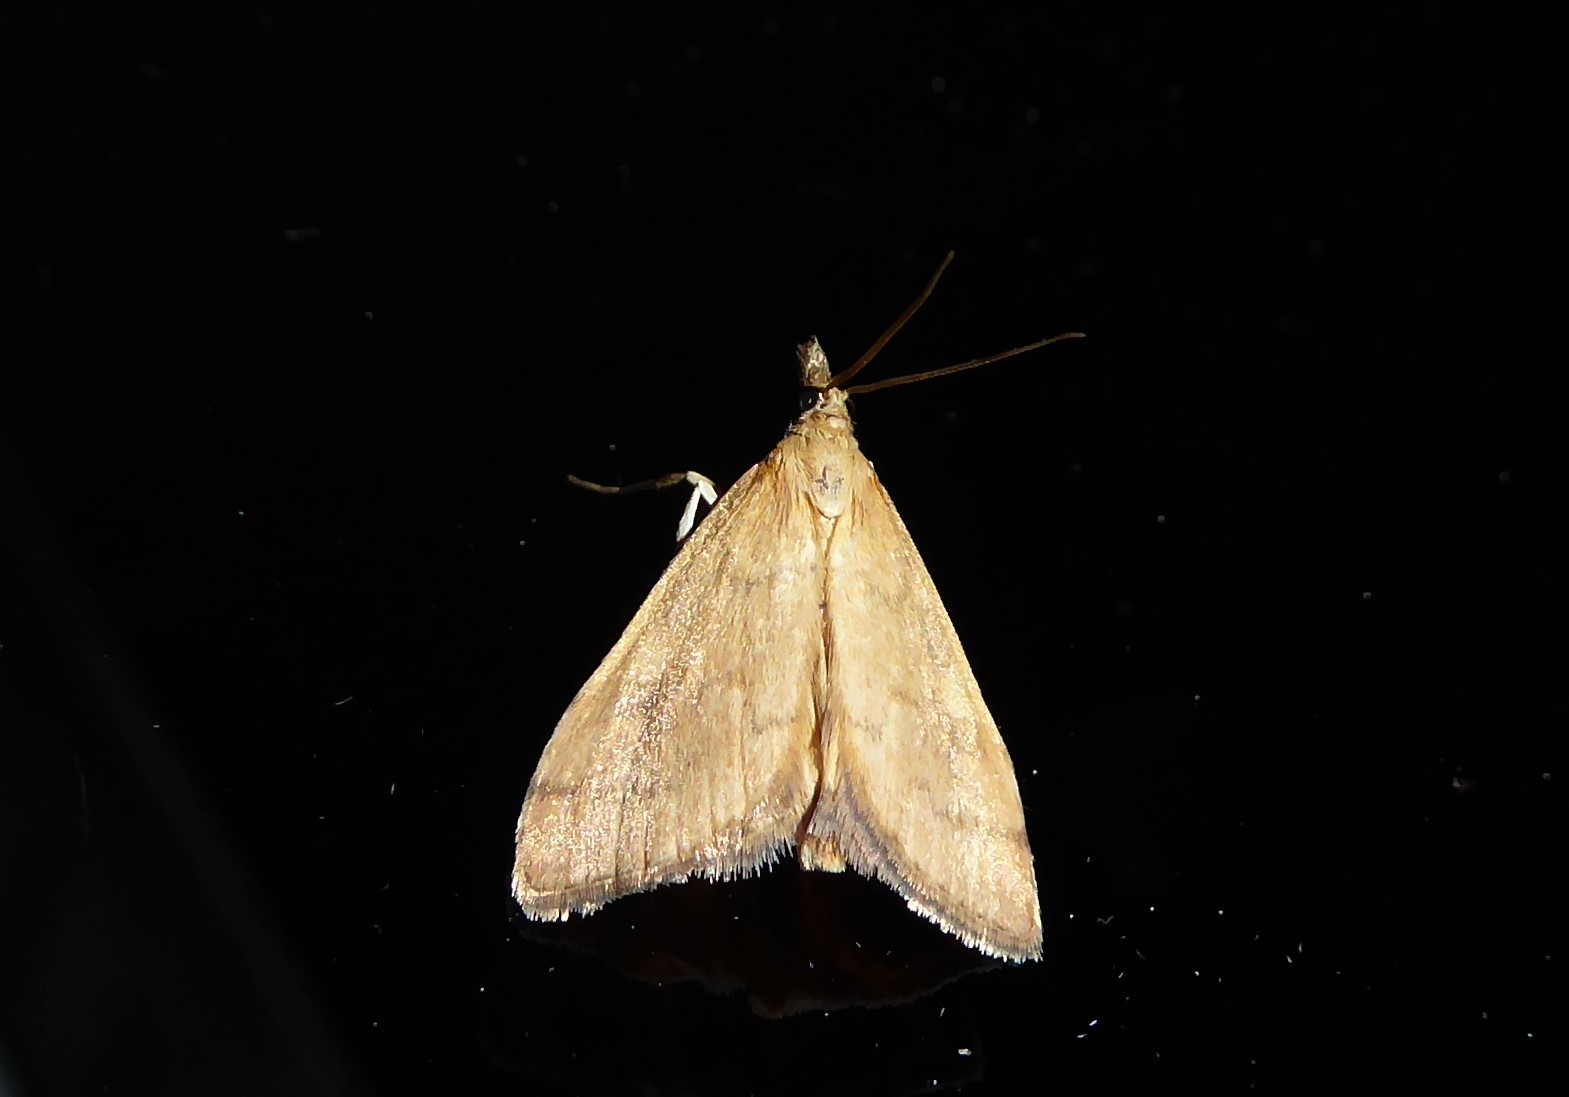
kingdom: Animalia
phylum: Arthropoda
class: Insecta
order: Lepidoptera
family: Crambidae
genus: Udea
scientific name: Udea Mnesictena flavidalis
